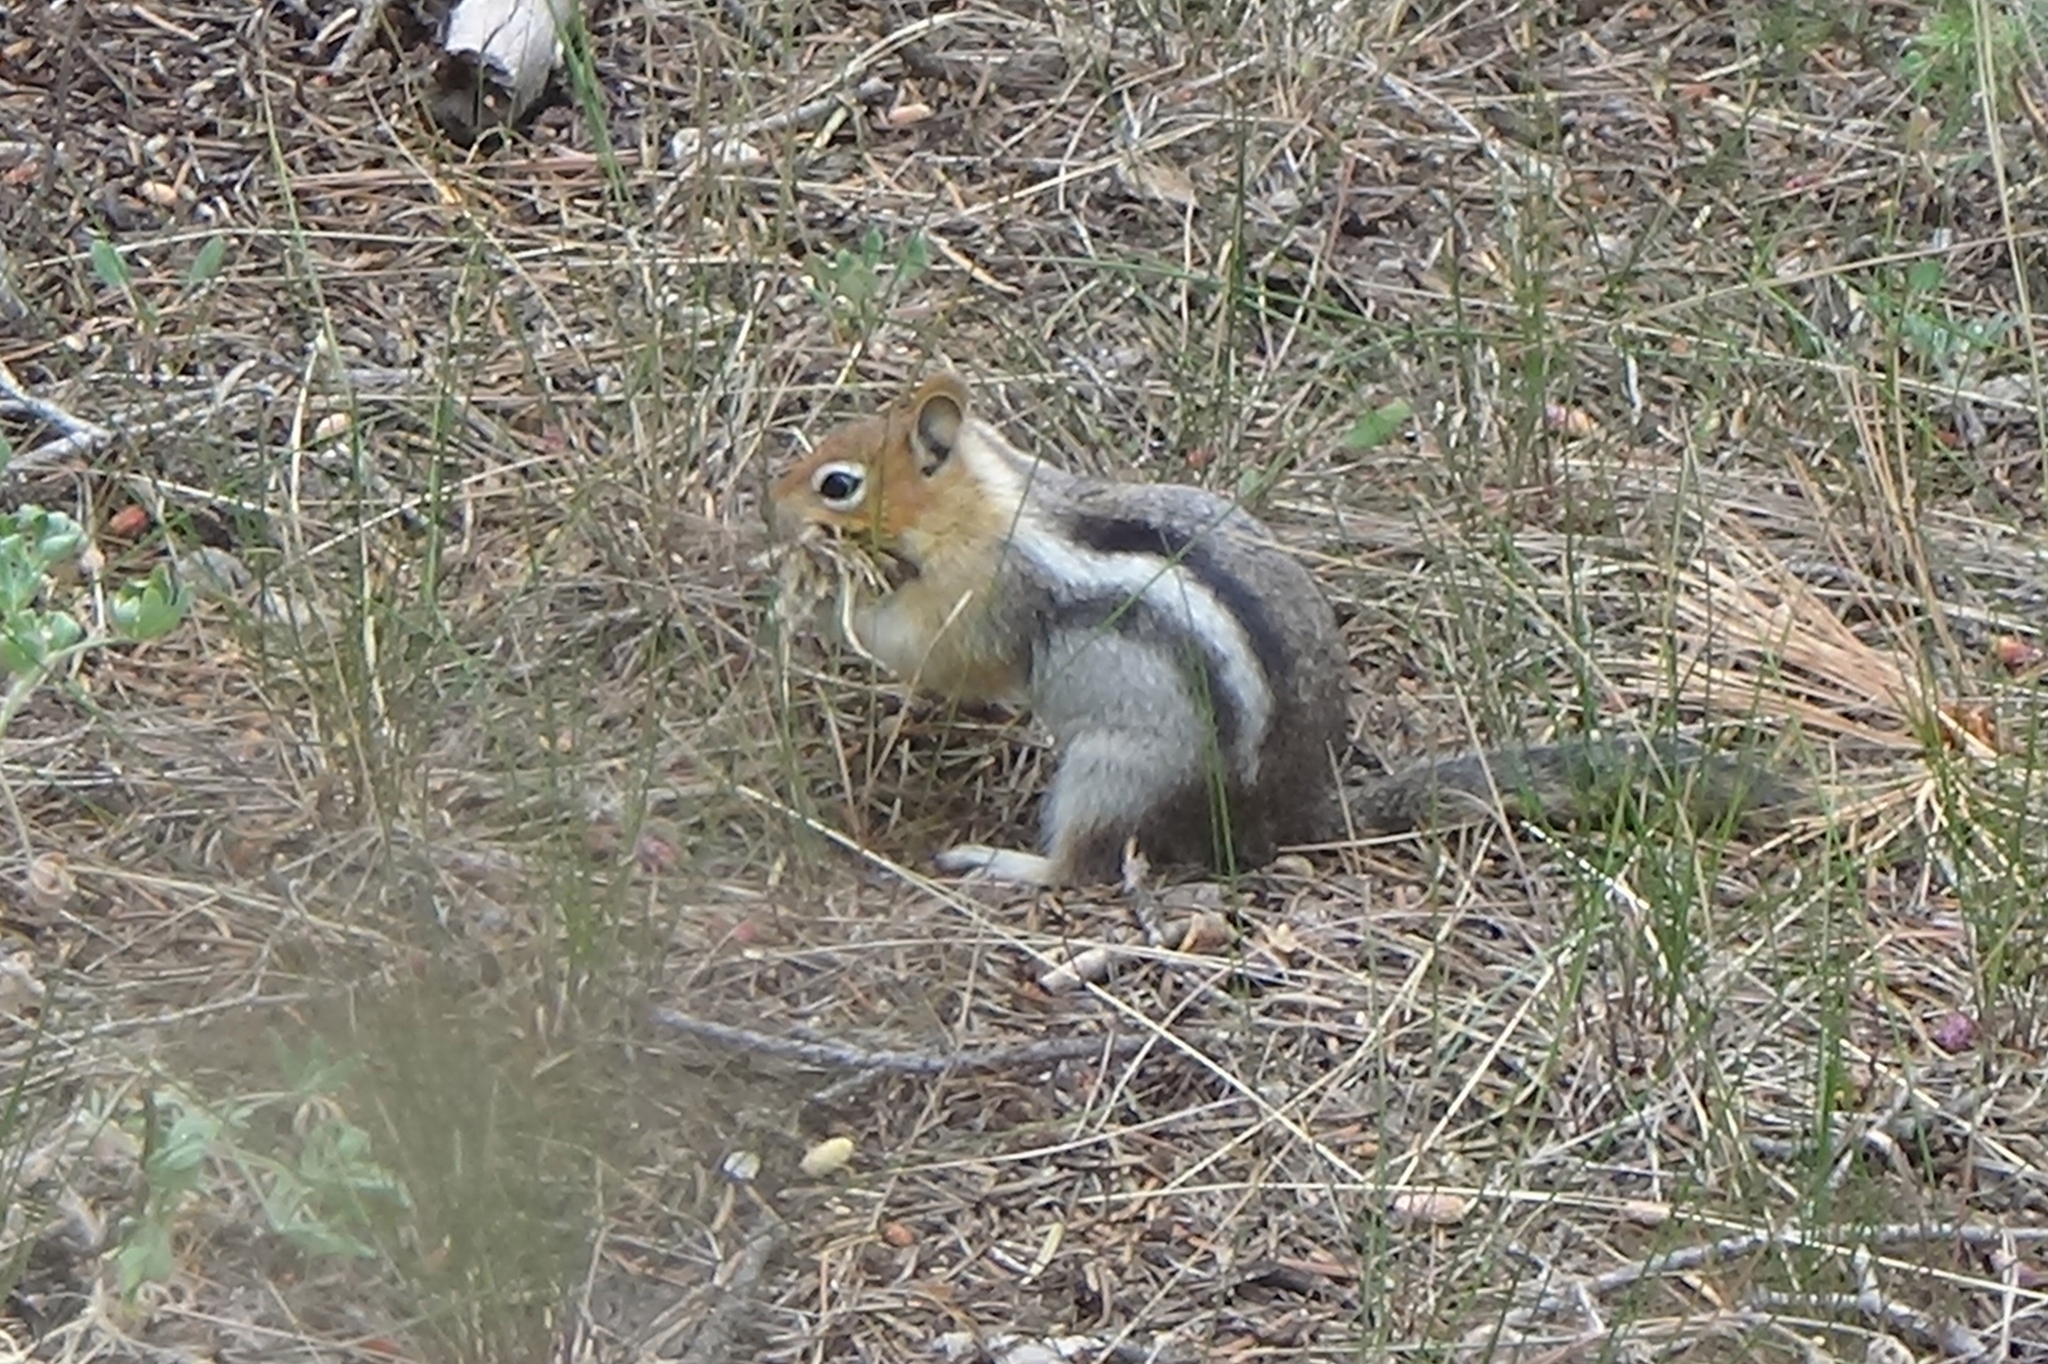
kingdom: Animalia
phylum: Chordata
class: Mammalia
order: Rodentia
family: Sciuridae
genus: Callospermophilus
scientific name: Callospermophilus lateralis
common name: Golden-mantled ground squirrel
